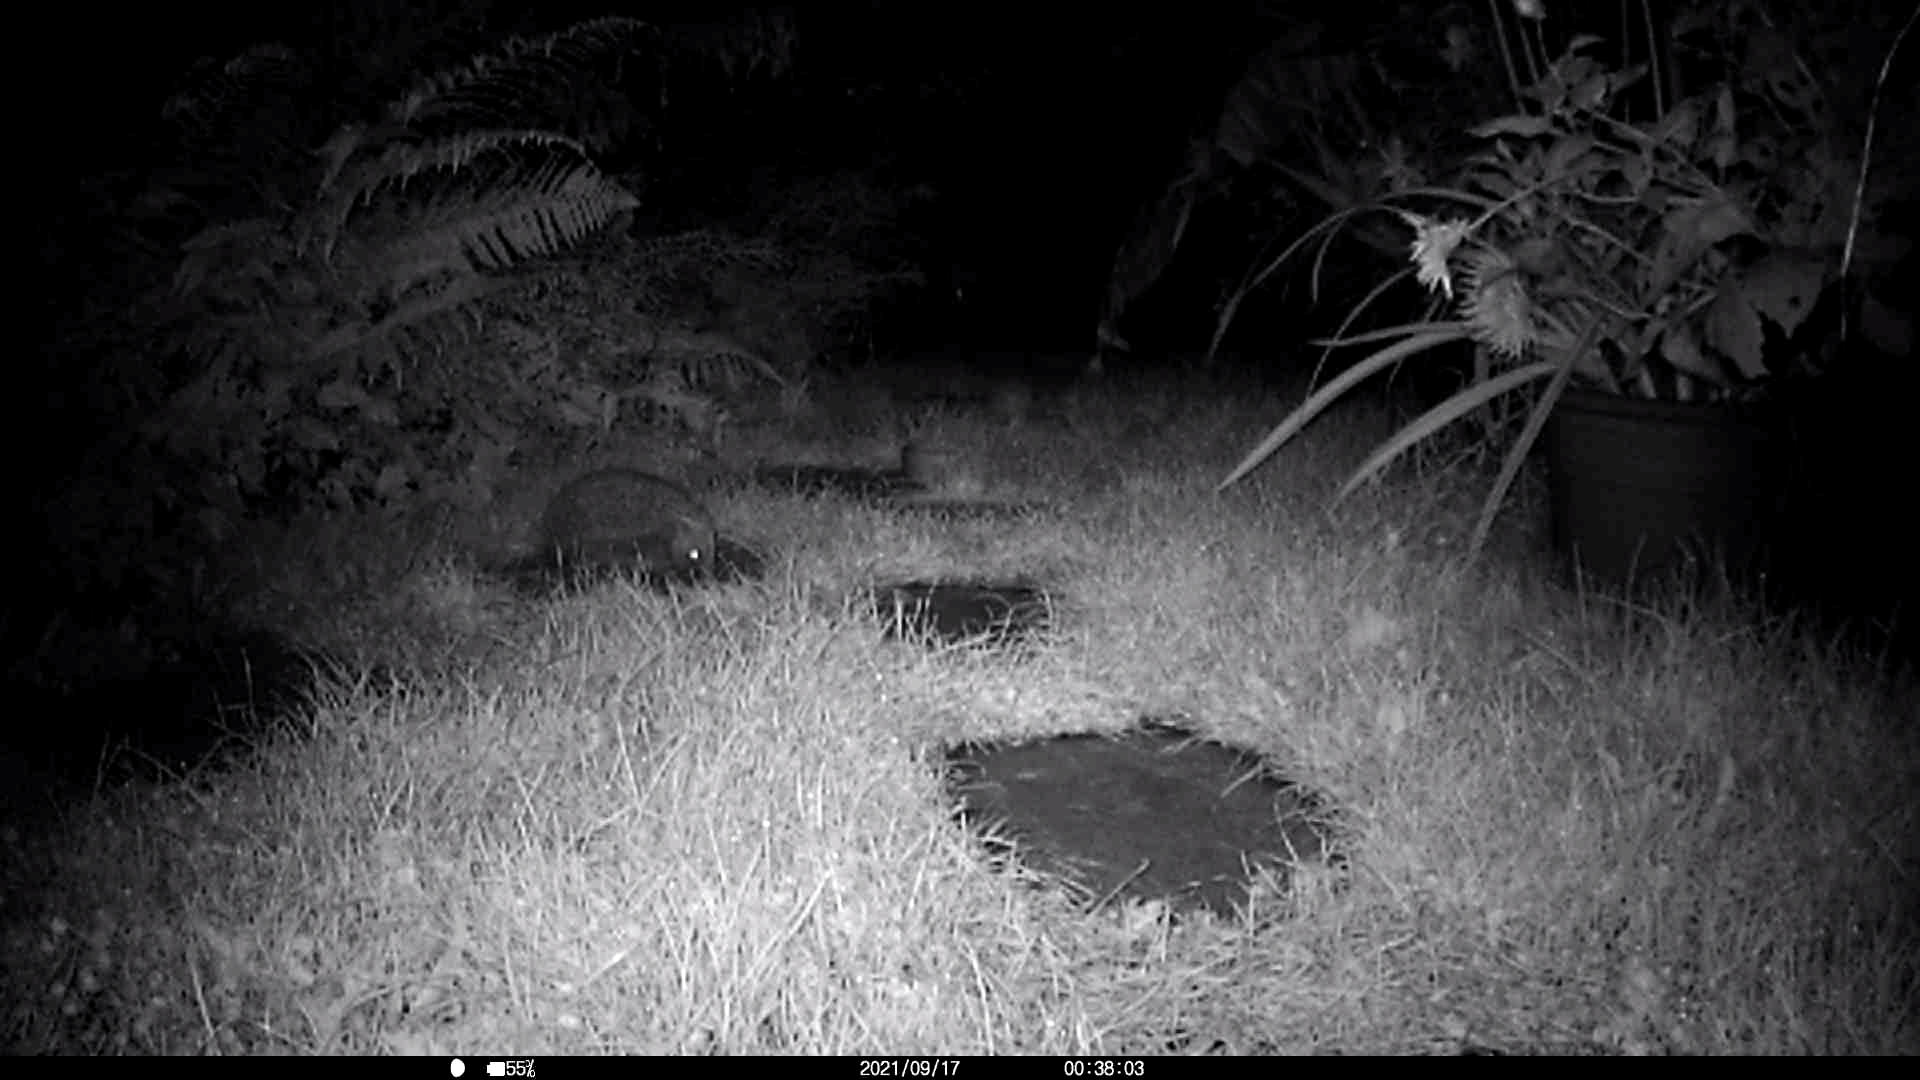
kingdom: Animalia
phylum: Chordata
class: Mammalia
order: Erinaceomorpha
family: Erinaceidae
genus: Erinaceus
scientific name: Erinaceus europaeus
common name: West european hedgehog
